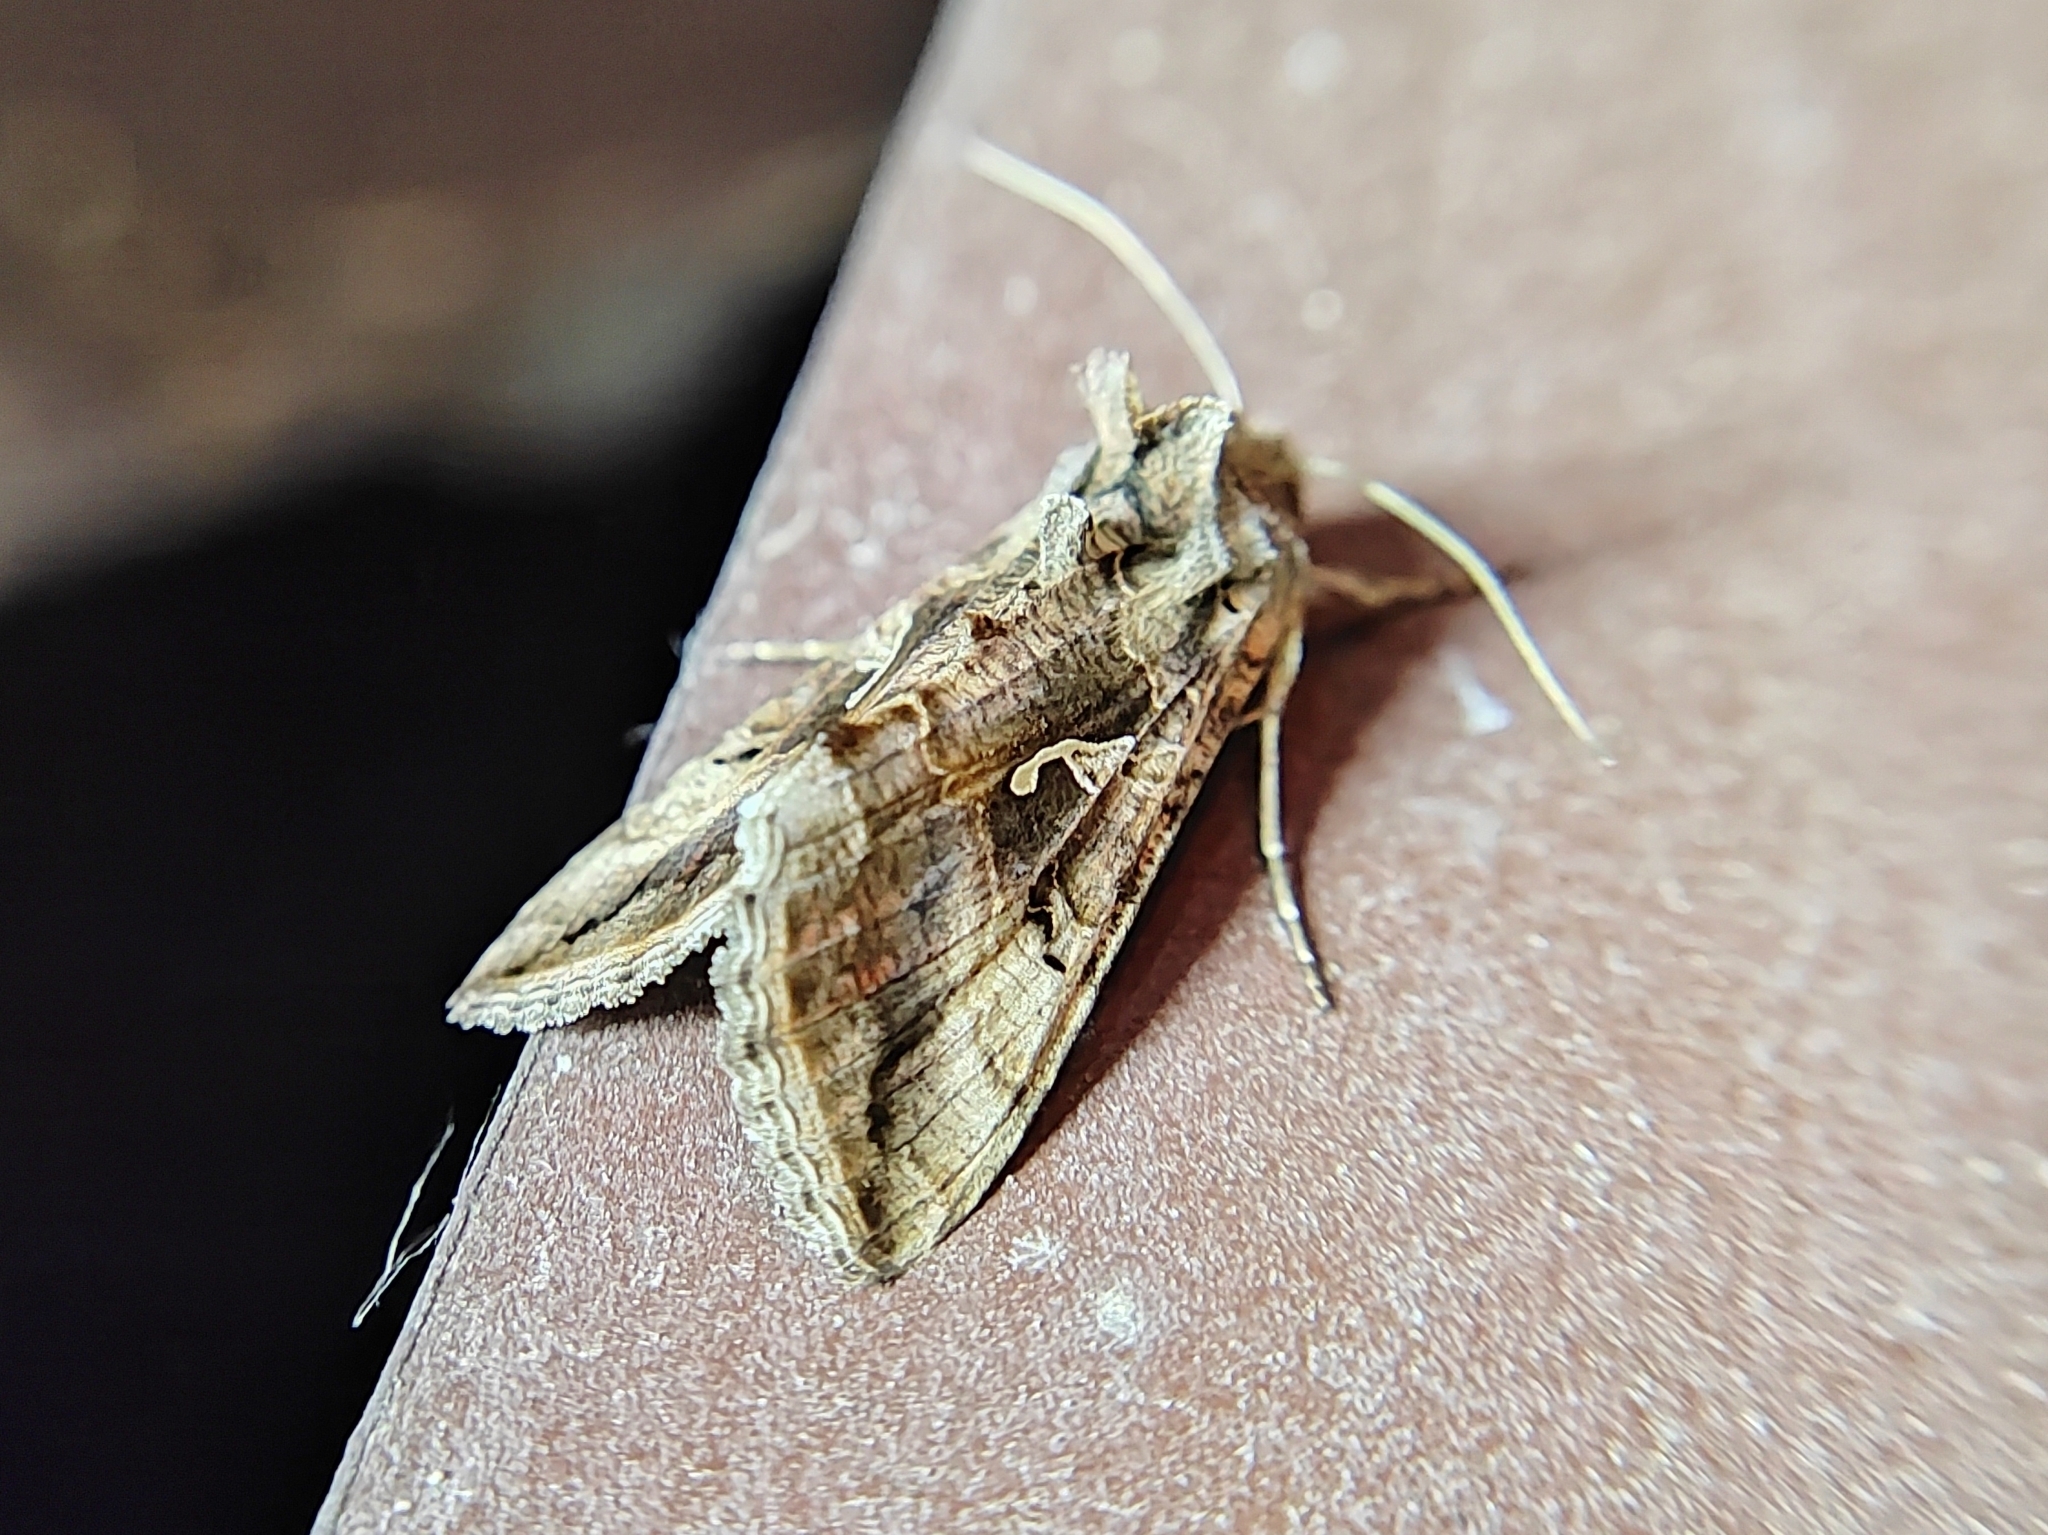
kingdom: Animalia
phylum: Arthropoda
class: Insecta
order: Lepidoptera
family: Noctuidae
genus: Autographa
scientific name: Autographa gamma
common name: Silver y
